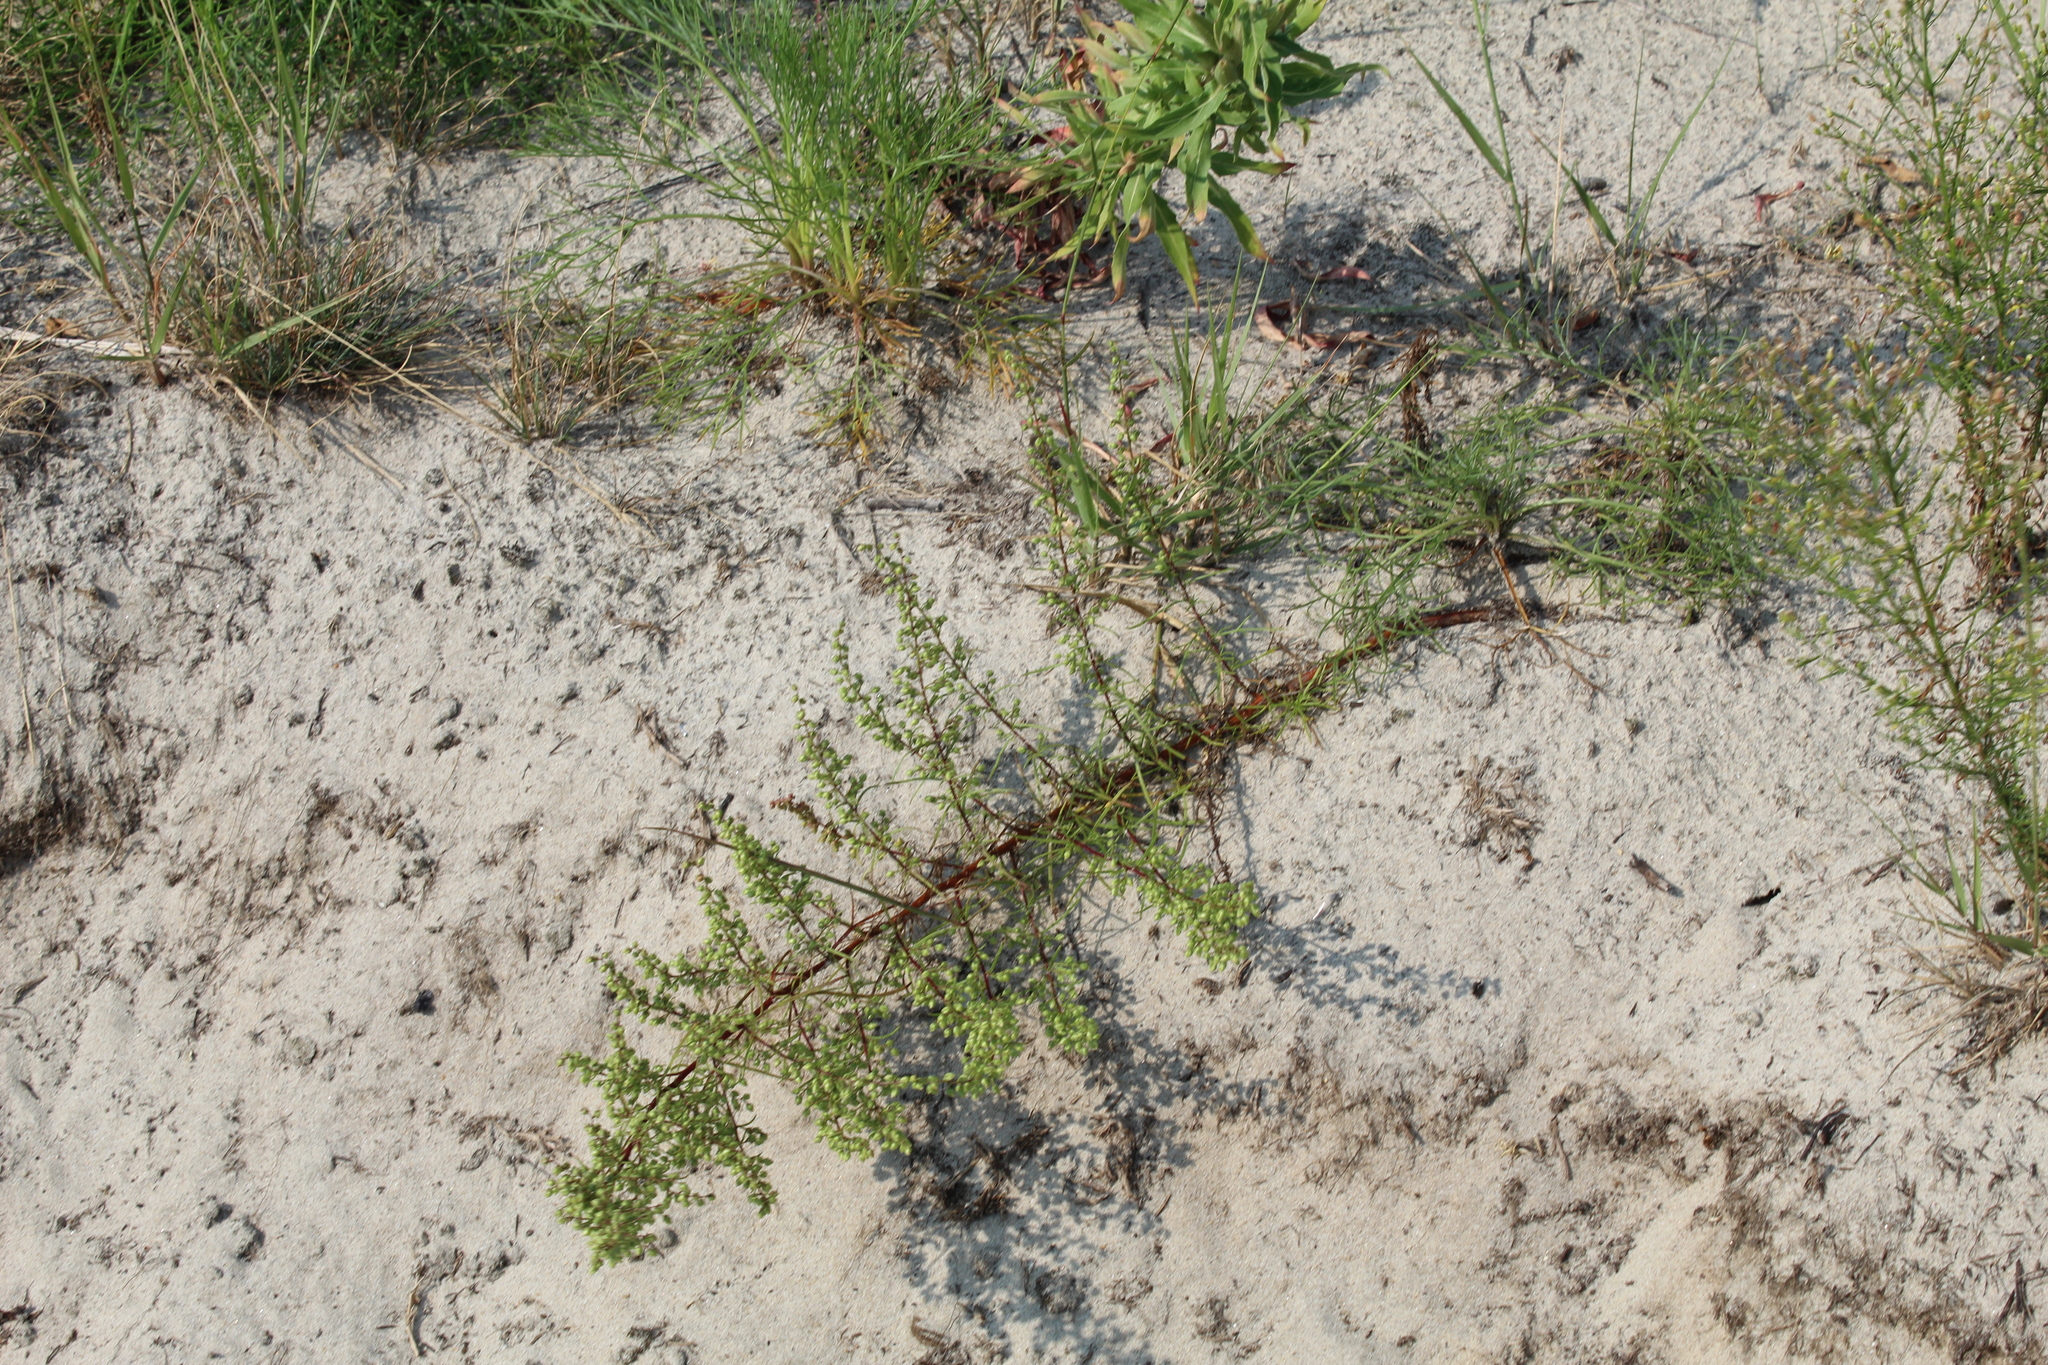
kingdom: Plantae
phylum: Tracheophyta
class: Magnoliopsida
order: Asterales
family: Asteraceae
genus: Artemisia
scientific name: Artemisia campestris
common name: Field wormwood
